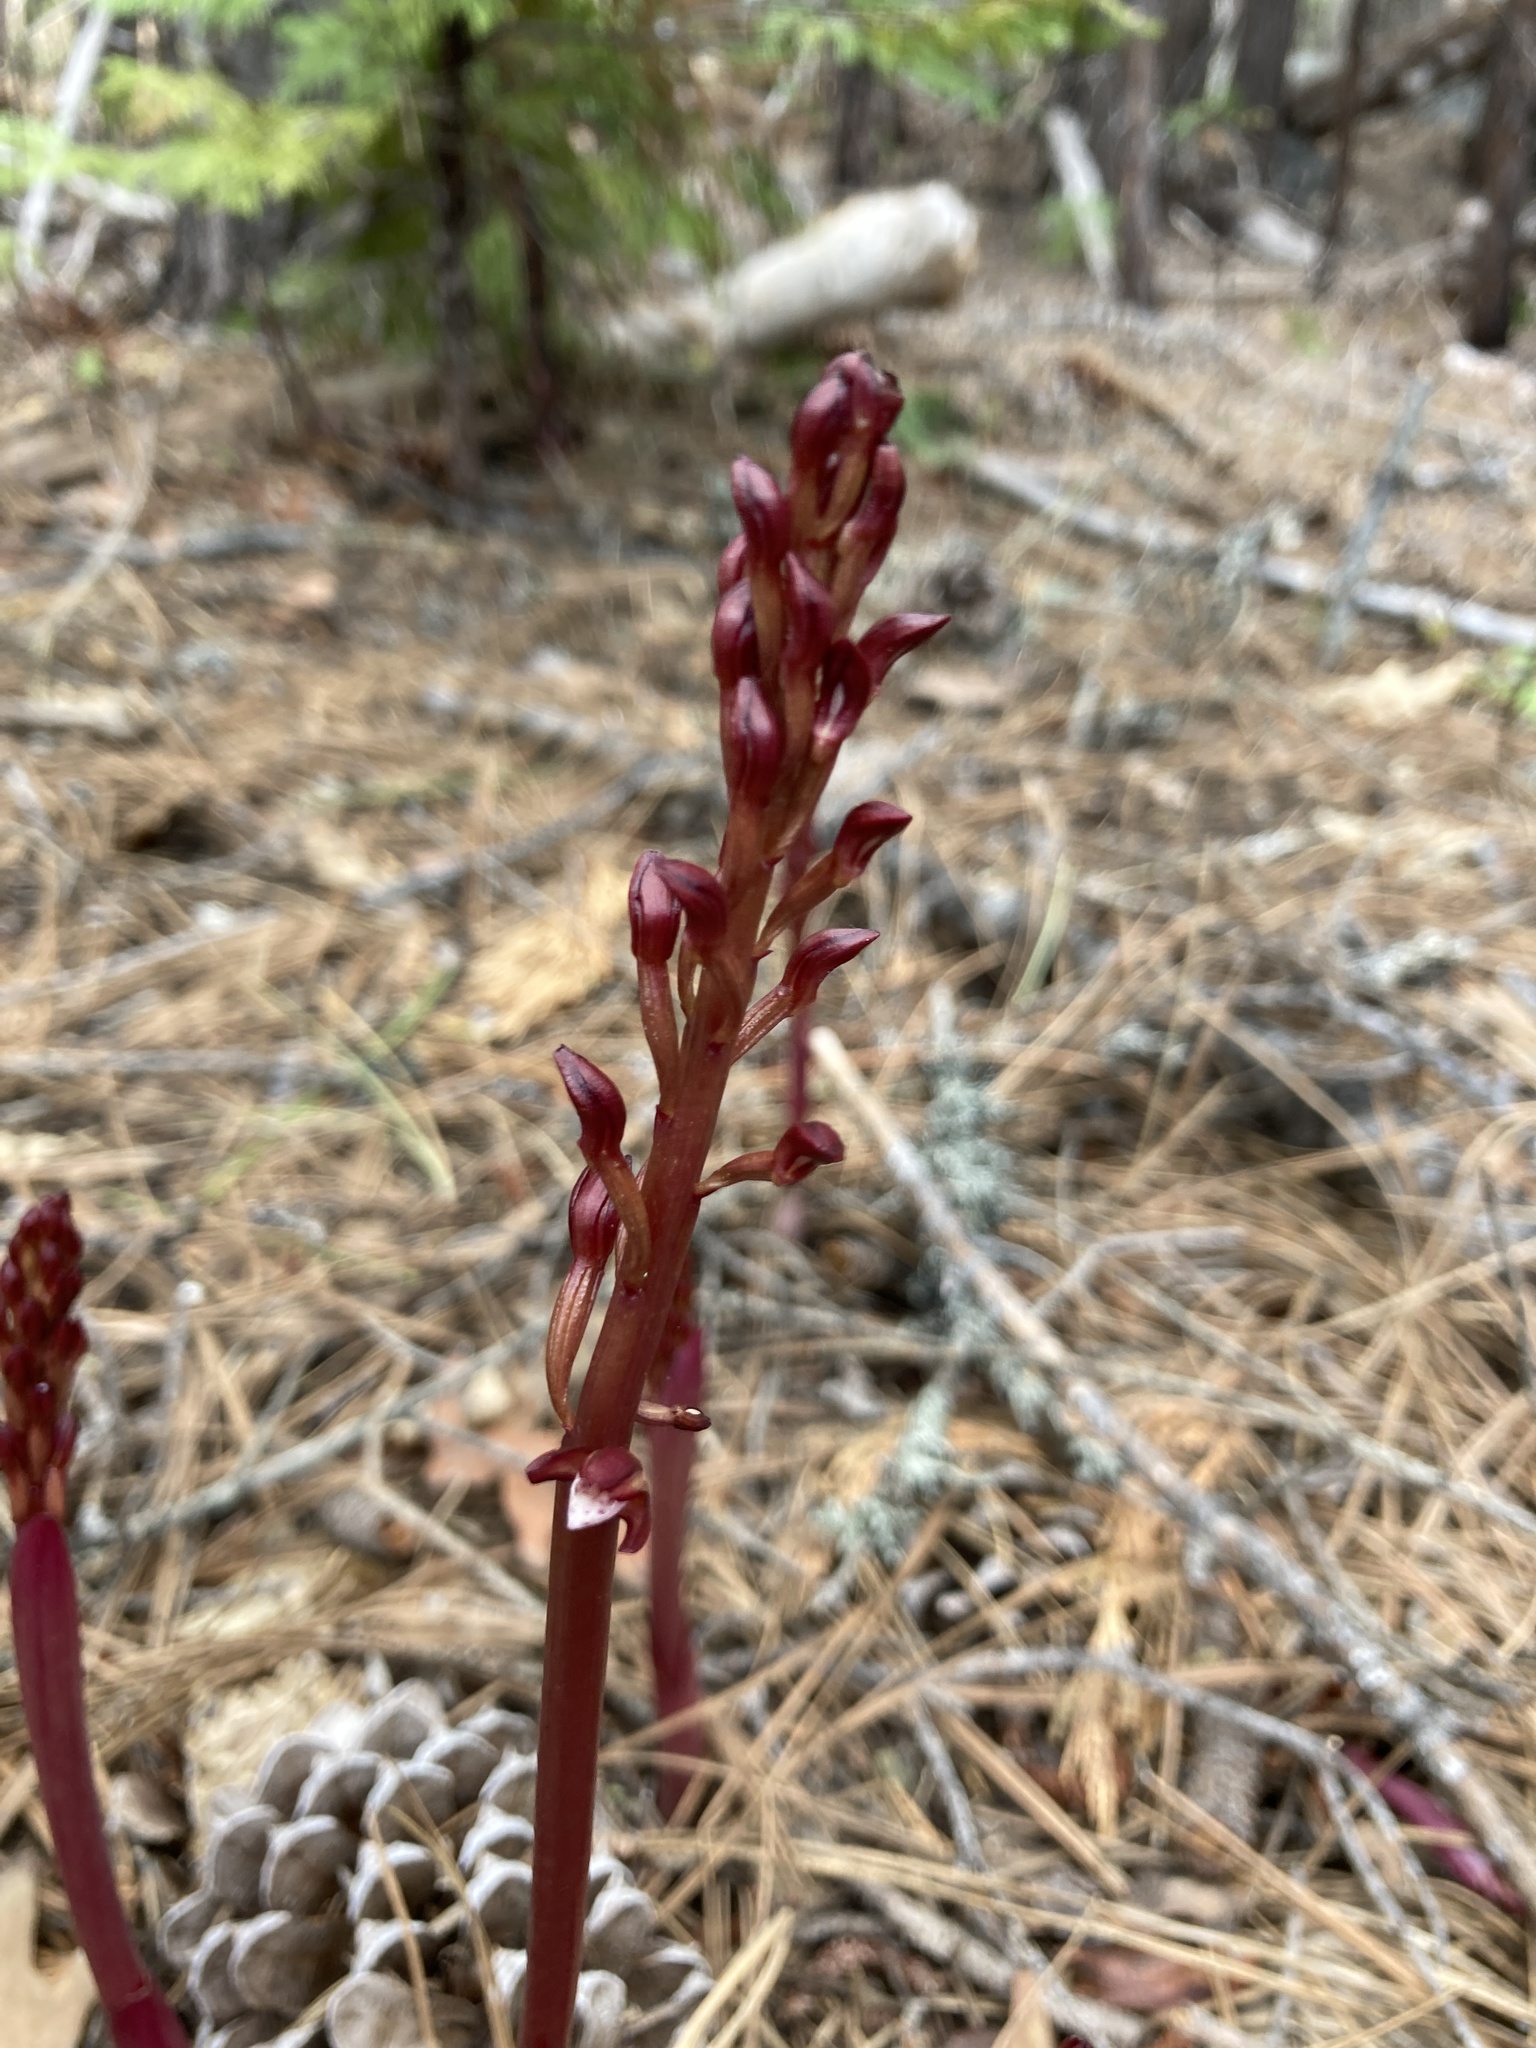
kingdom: Plantae
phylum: Tracheophyta
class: Liliopsida
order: Asparagales
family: Orchidaceae
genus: Corallorhiza
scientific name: Corallorhiza maculata
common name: Spotted coralroot
